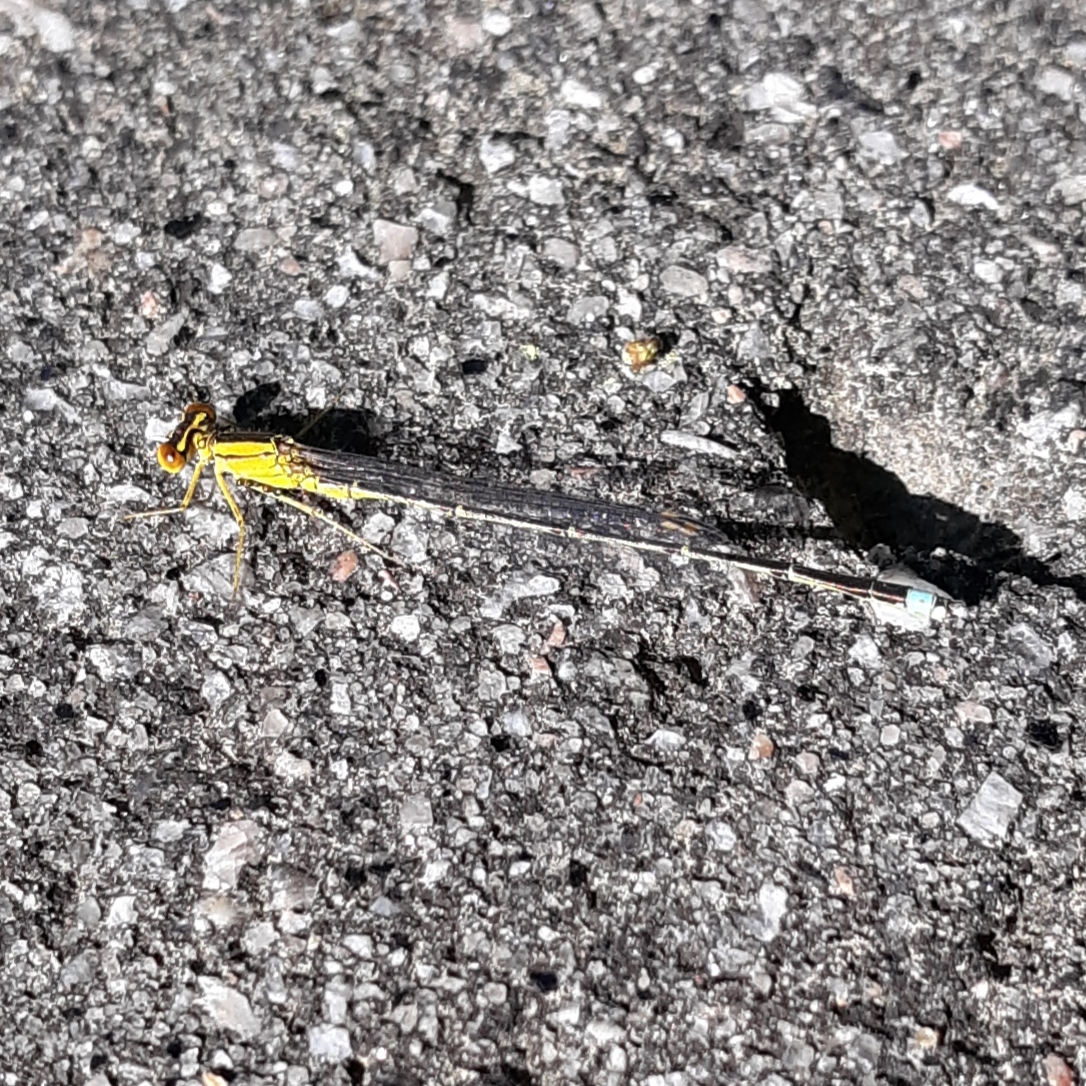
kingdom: Animalia
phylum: Arthropoda
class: Insecta
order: Odonata
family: Coenagrionidae
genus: Enallagma
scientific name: Enallagma vesperum
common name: Vesper bluet
